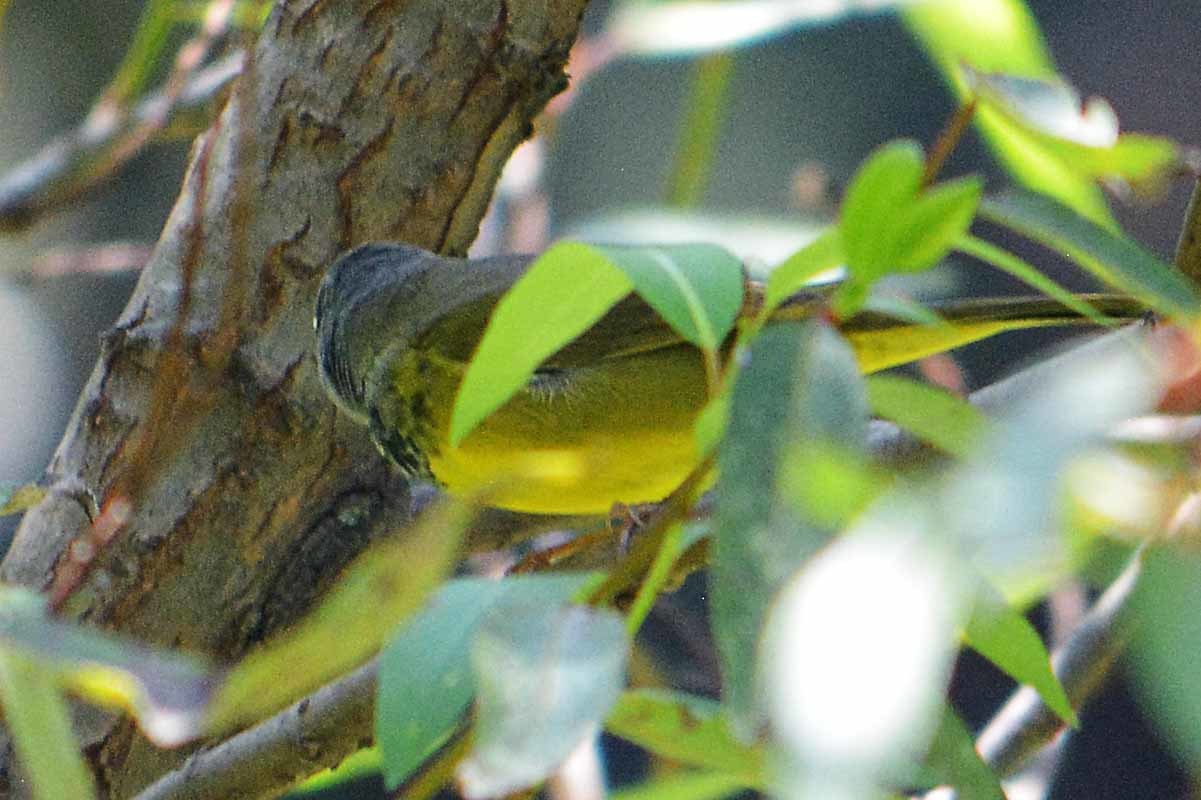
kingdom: Animalia
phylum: Chordata
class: Aves
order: Passeriformes
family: Parulidae
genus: Geothlypis
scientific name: Geothlypis tolmiei
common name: Macgillivray's warbler
